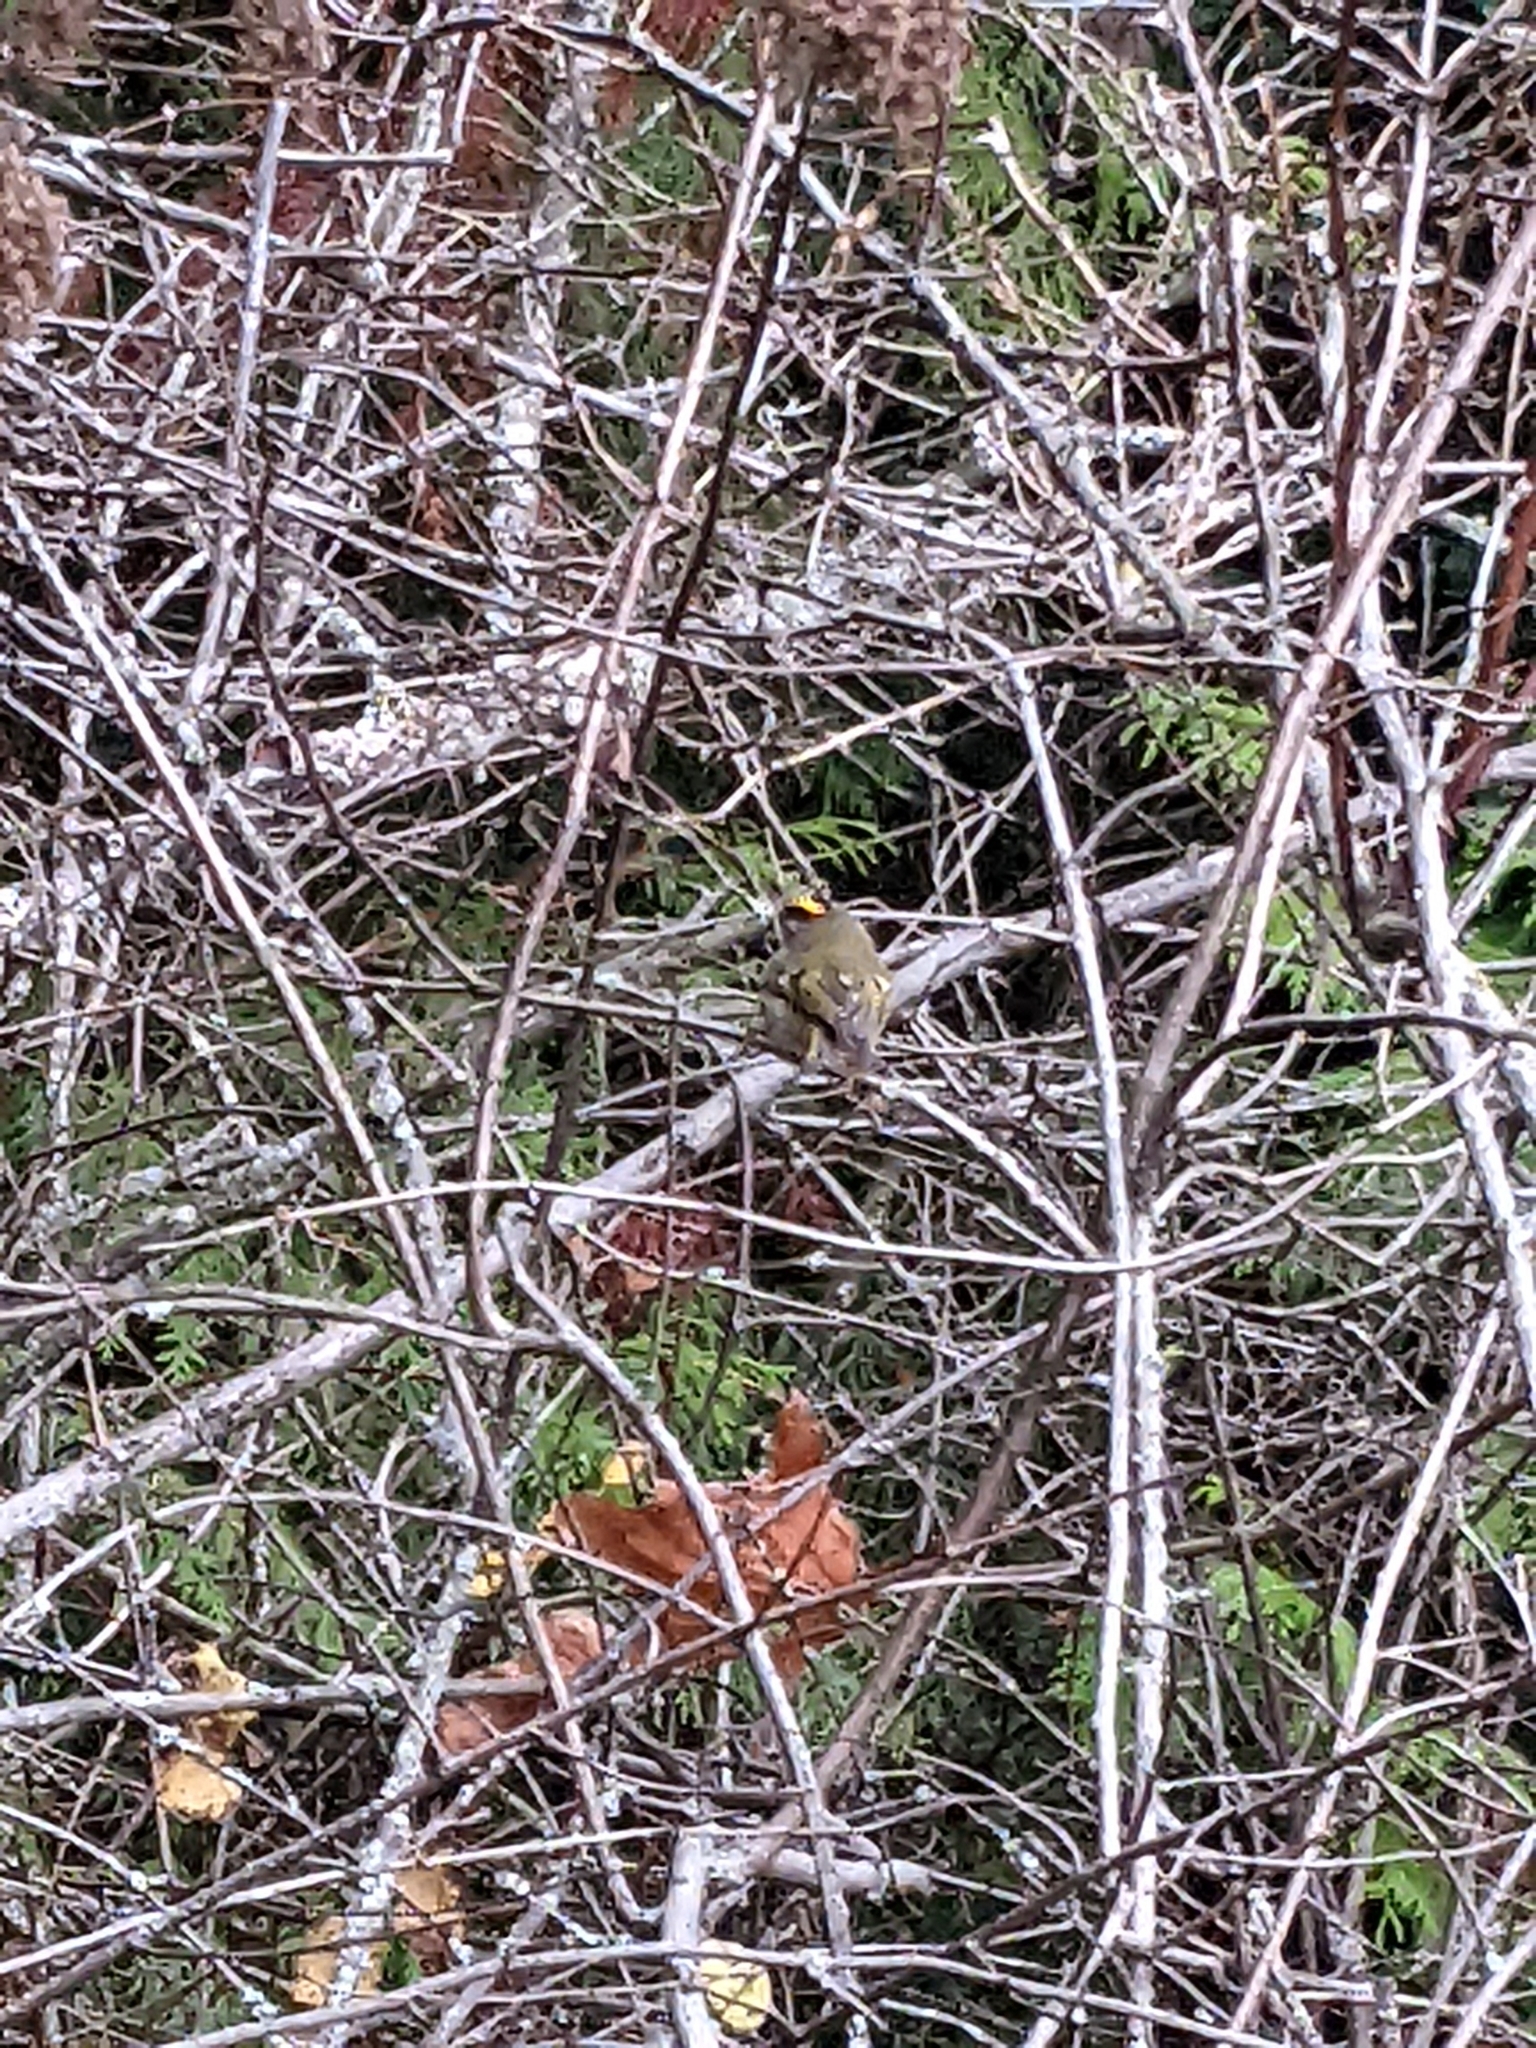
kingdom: Animalia
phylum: Chordata
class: Aves
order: Passeriformes
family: Regulidae
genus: Regulus
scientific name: Regulus satrapa
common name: Golden-crowned kinglet
